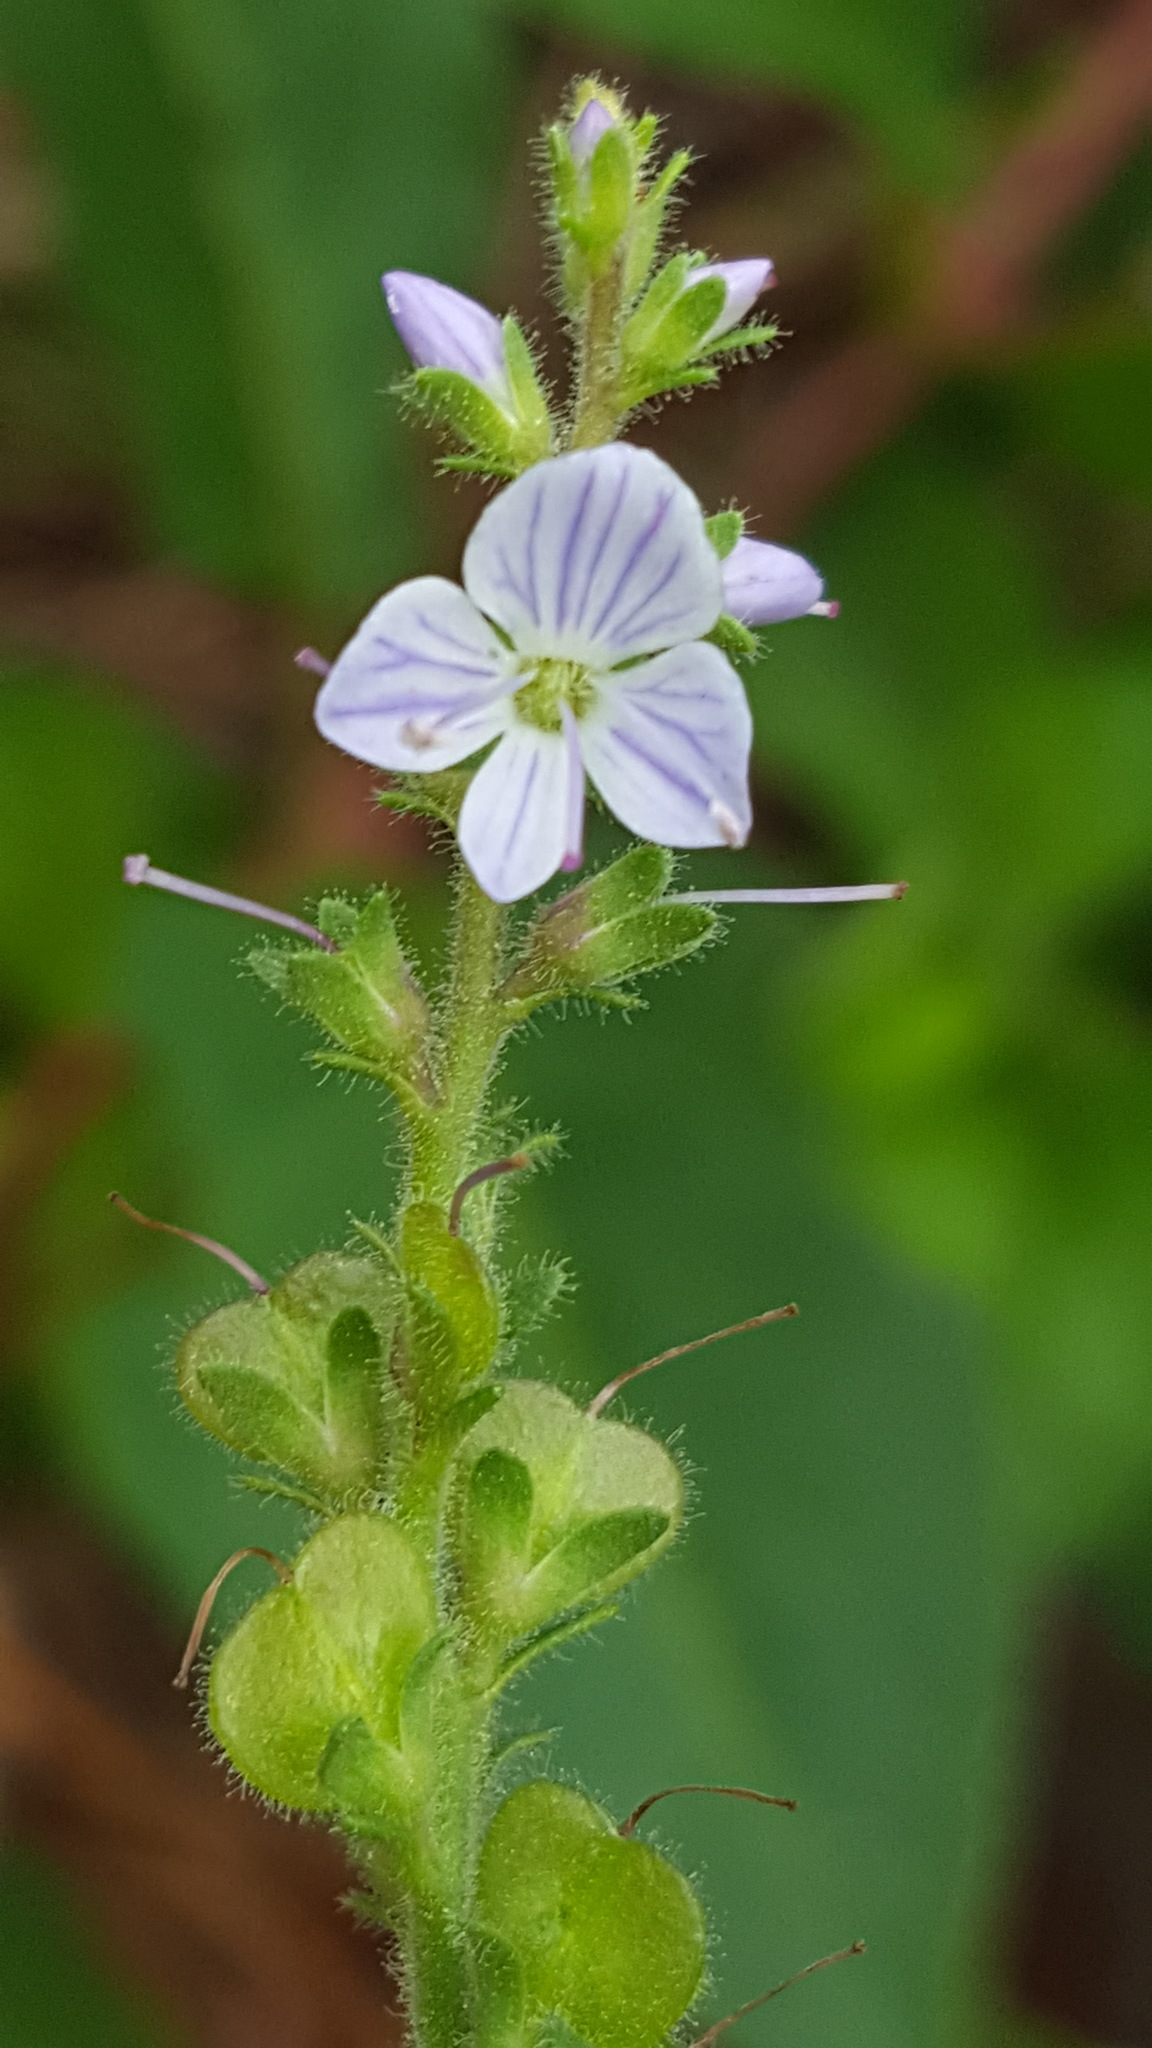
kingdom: Plantae
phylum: Tracheophyta
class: Magnoliopsida
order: Lamiales
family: Plantaginaceae
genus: Veronica
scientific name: Veronica officinalis
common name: Common speedwell
